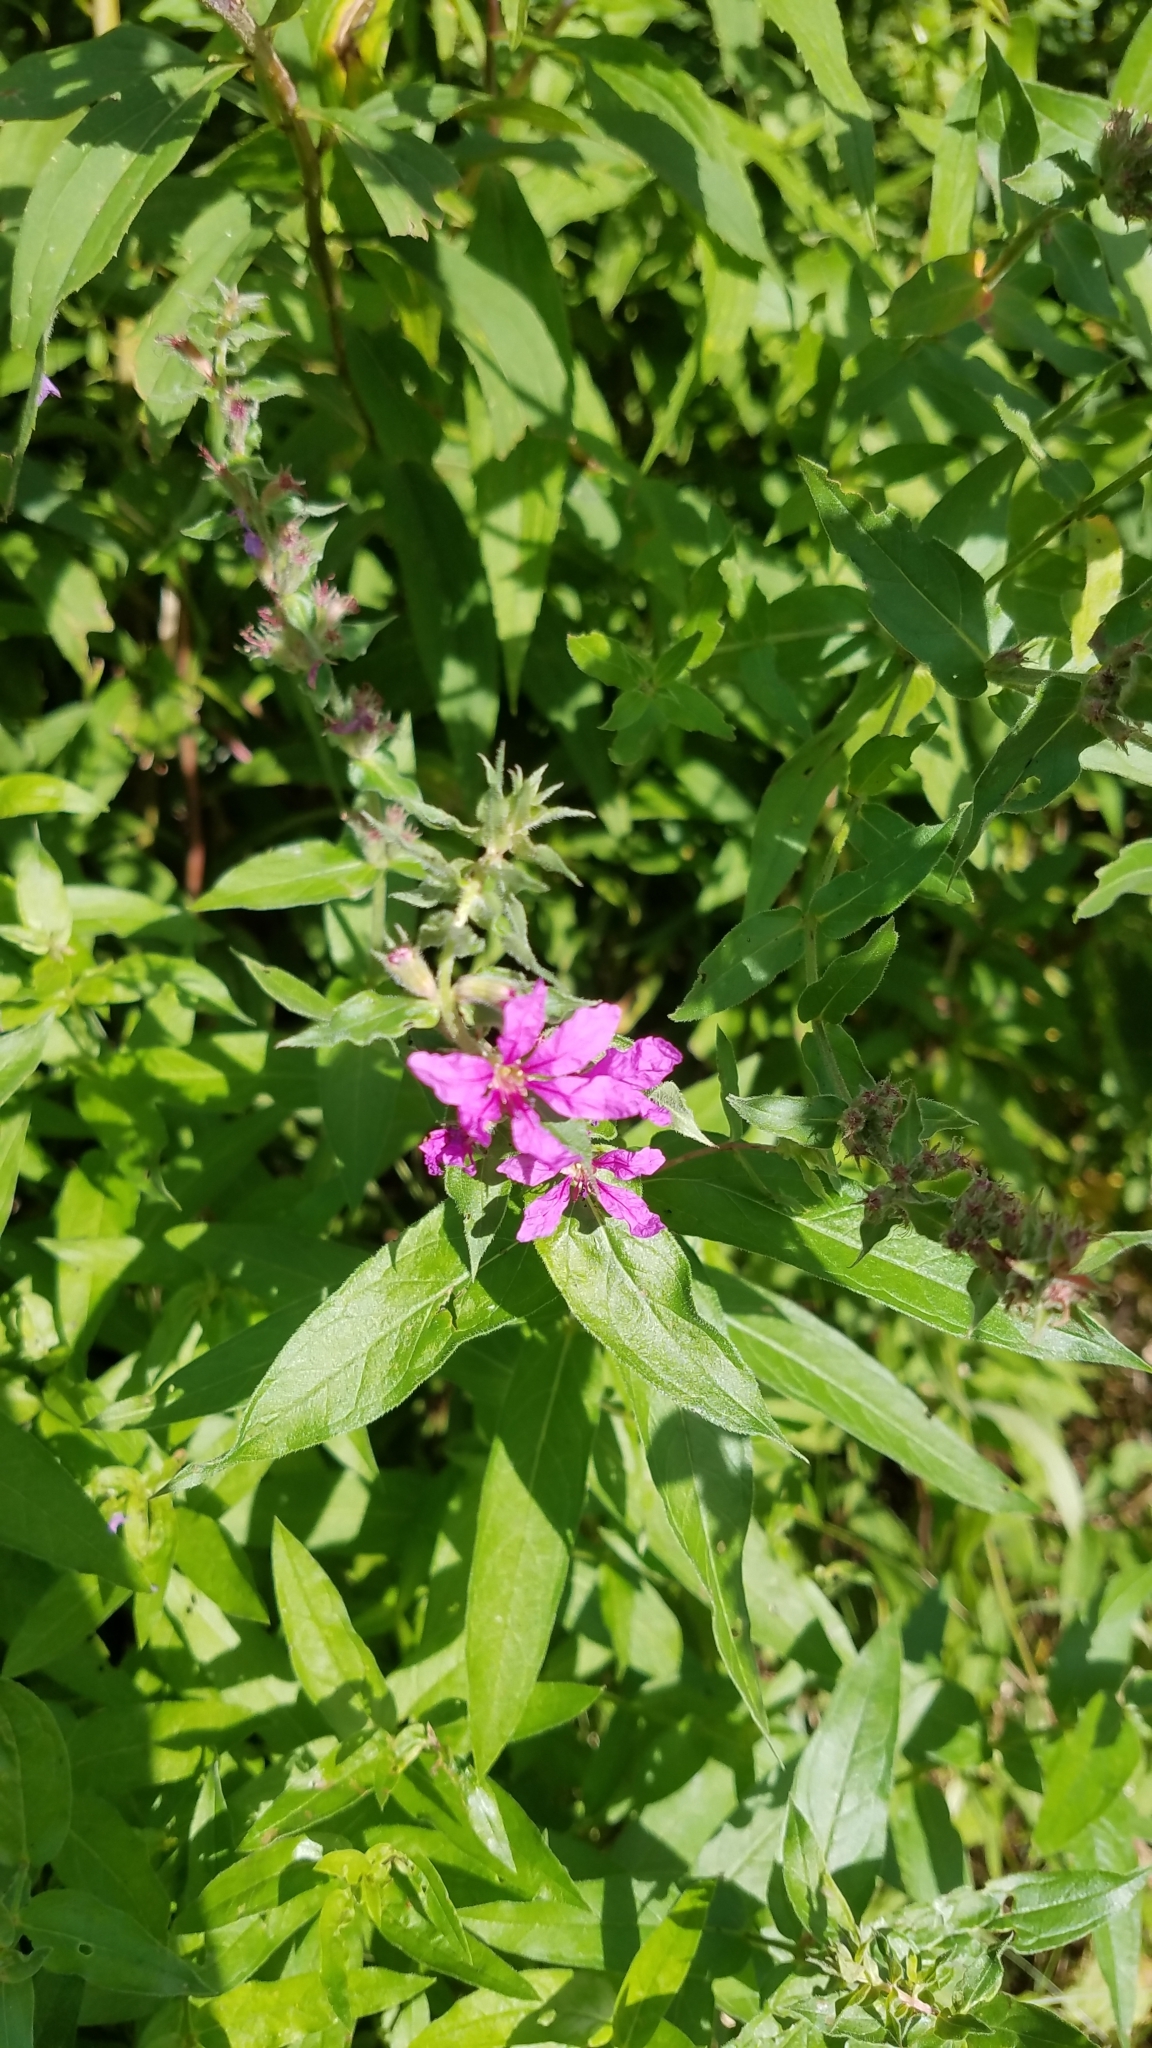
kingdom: Plantae
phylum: Tracheophyta
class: Magnoliopsida
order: Myrtales
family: Lythraceae
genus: Lythrum
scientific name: Lythrum salicaria
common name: Purple loosestrife
